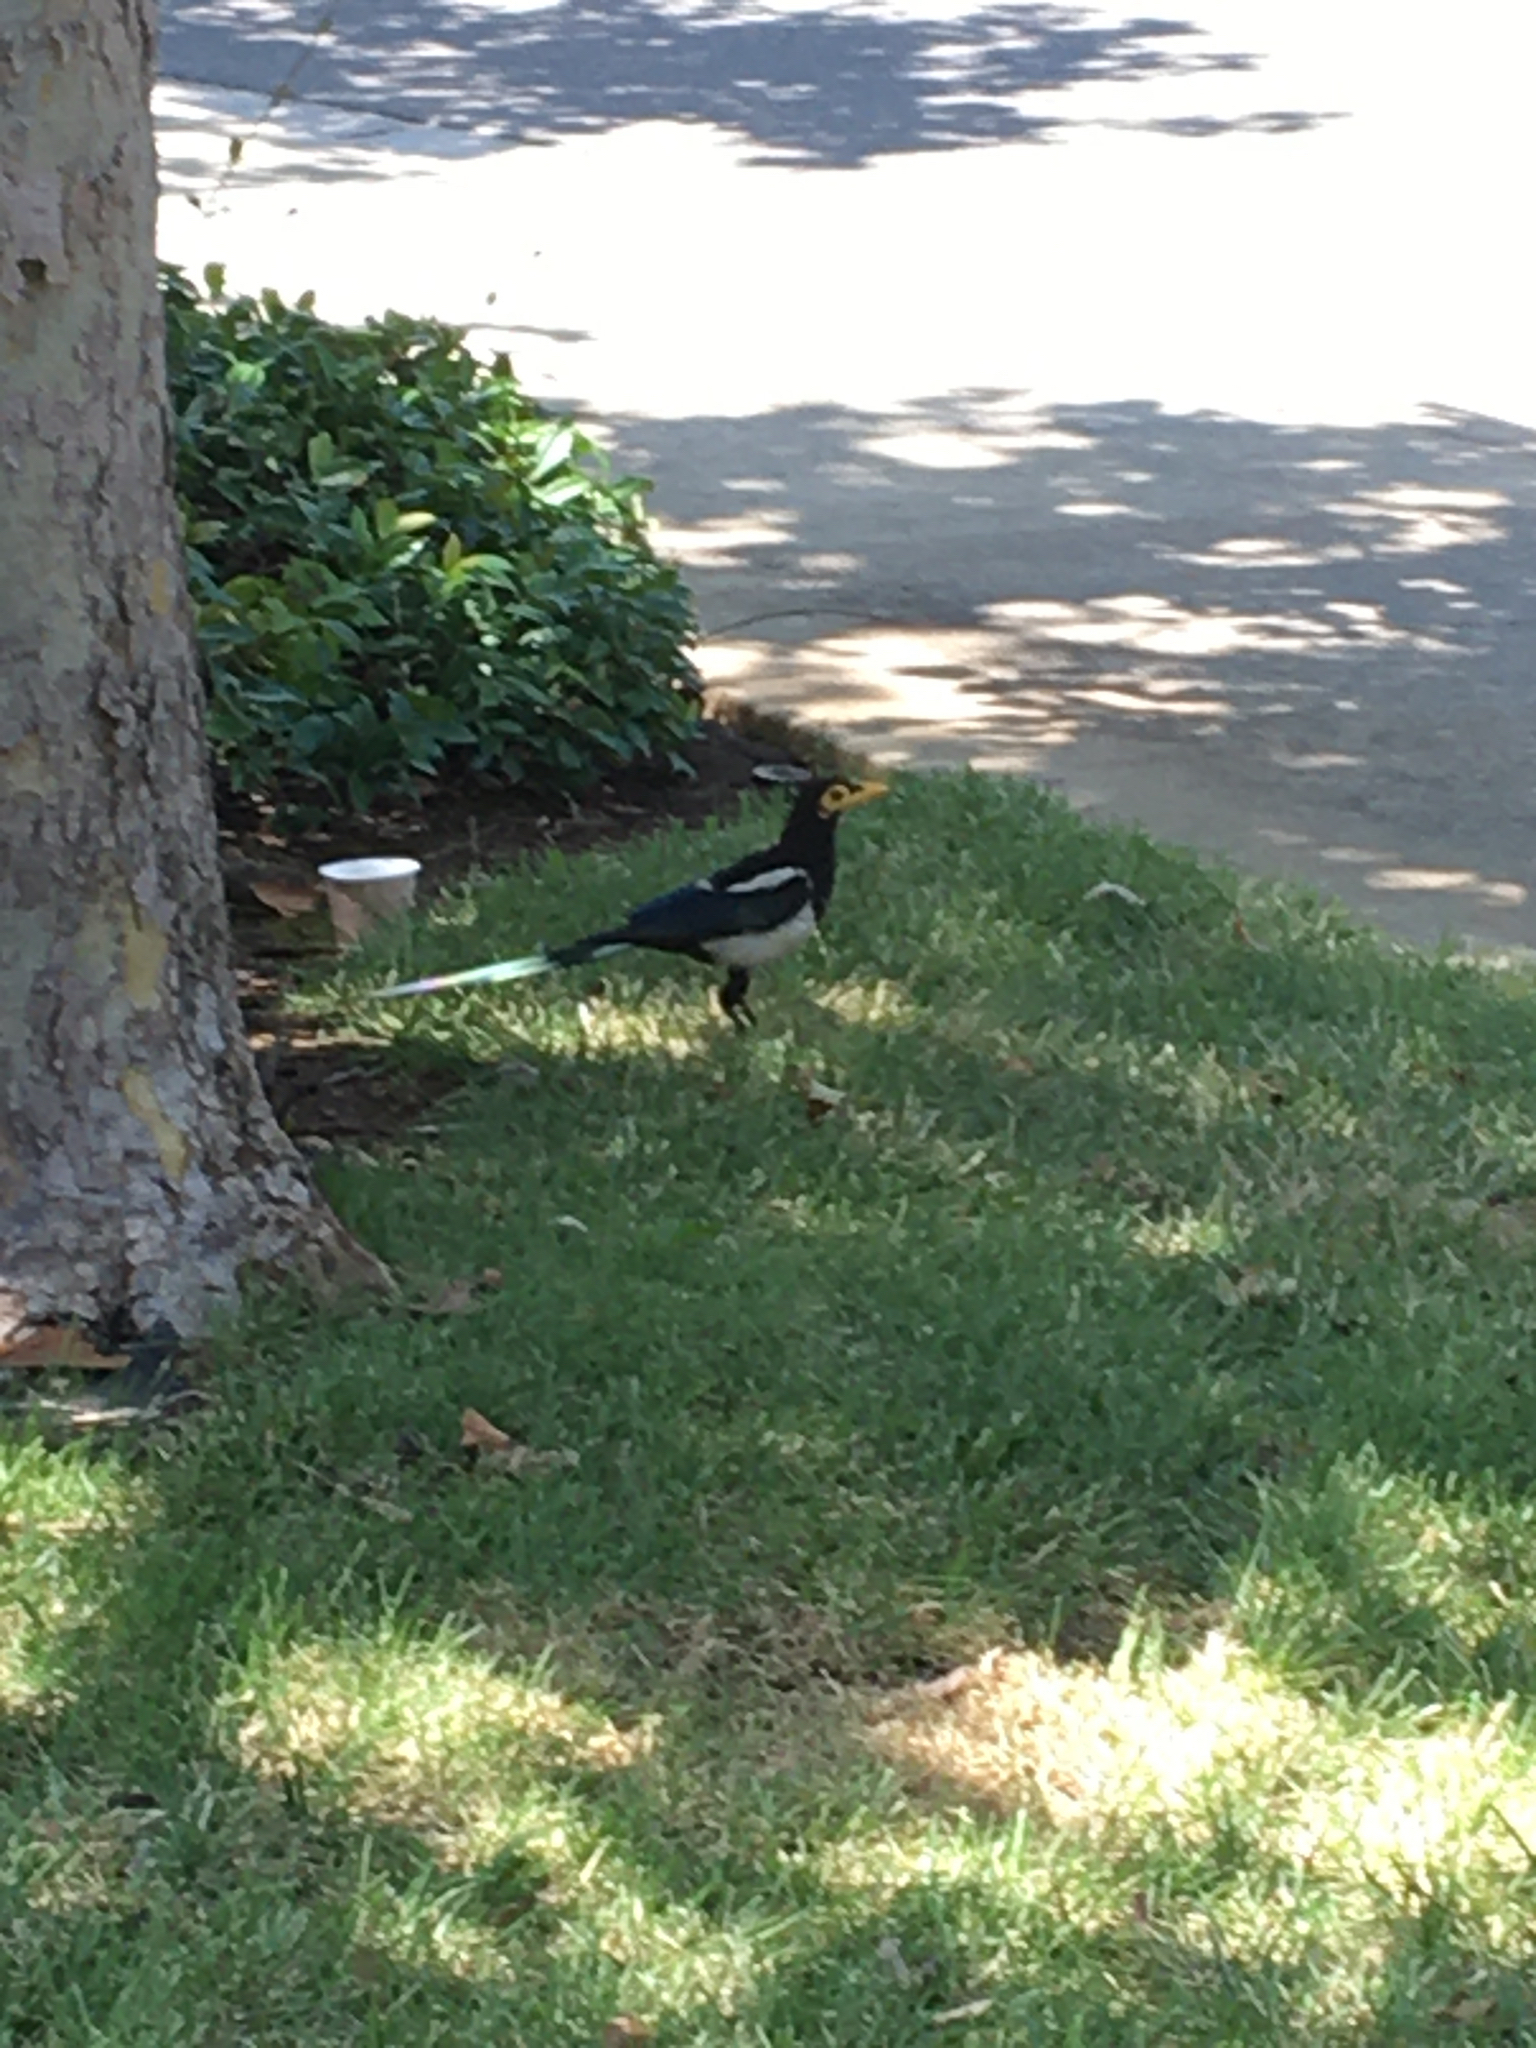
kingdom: Animalia
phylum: Chordata
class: Aves
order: Passeriformes
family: Corvidae
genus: Pica
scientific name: Pica nuttalli
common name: Yellow-billed magpie
